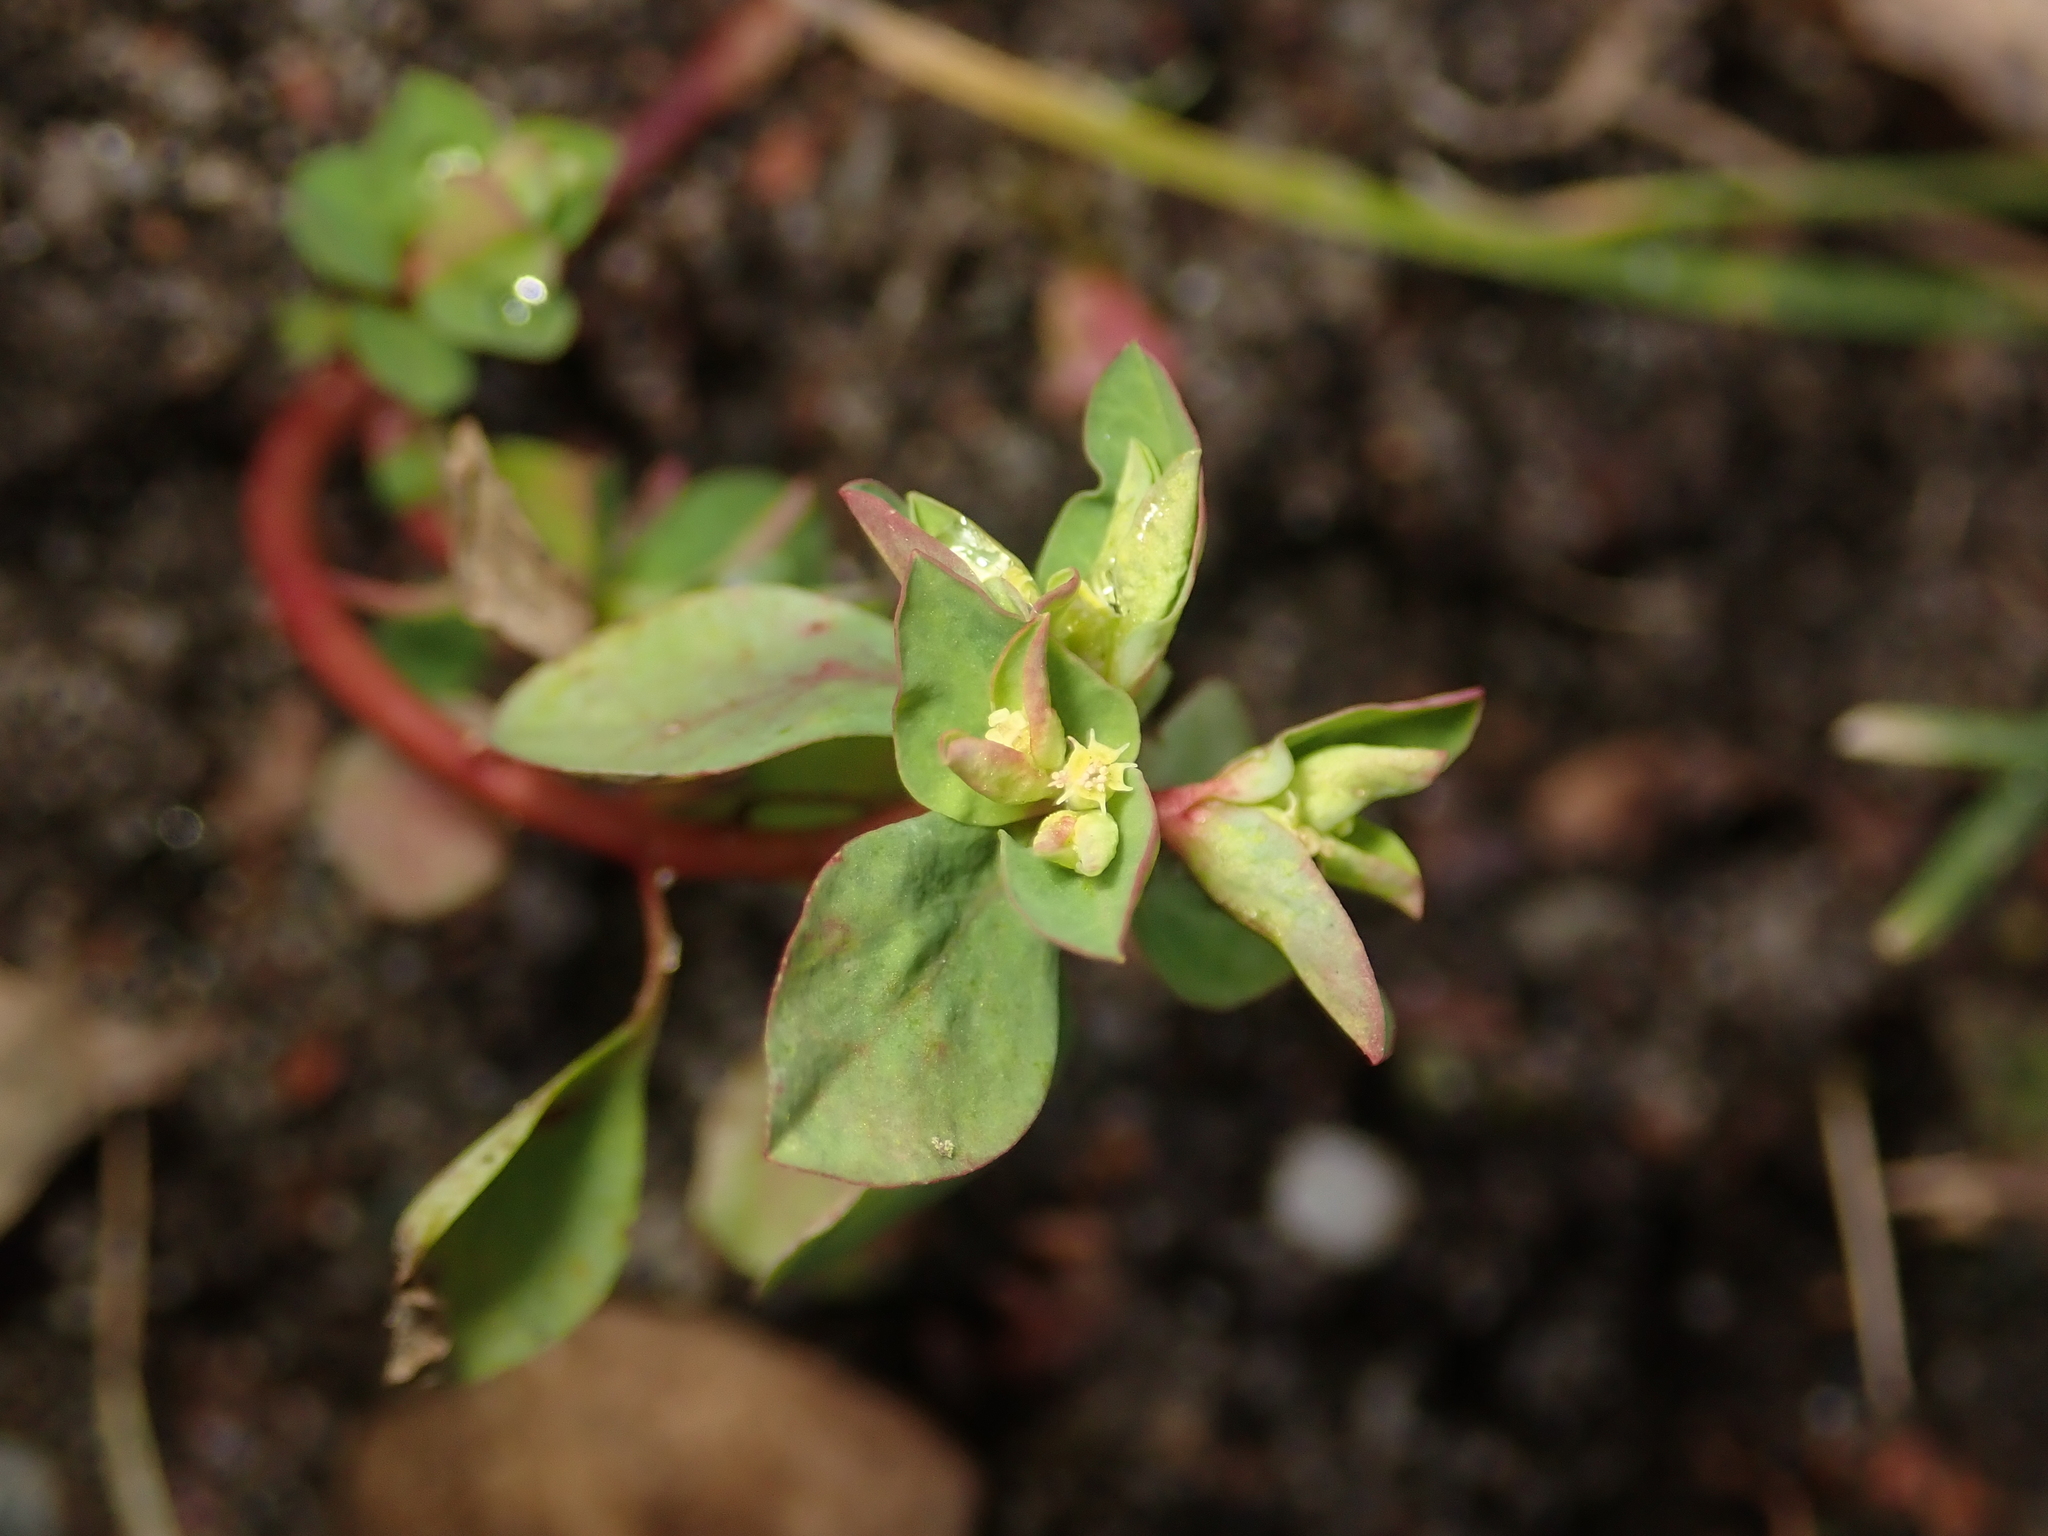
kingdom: Plantae
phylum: Tracheophyta
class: Magnoliopsida
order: Malpighiales
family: Euphorbiaceae
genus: Euphorbia
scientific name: Euphorbia peplus
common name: Petty spurge
